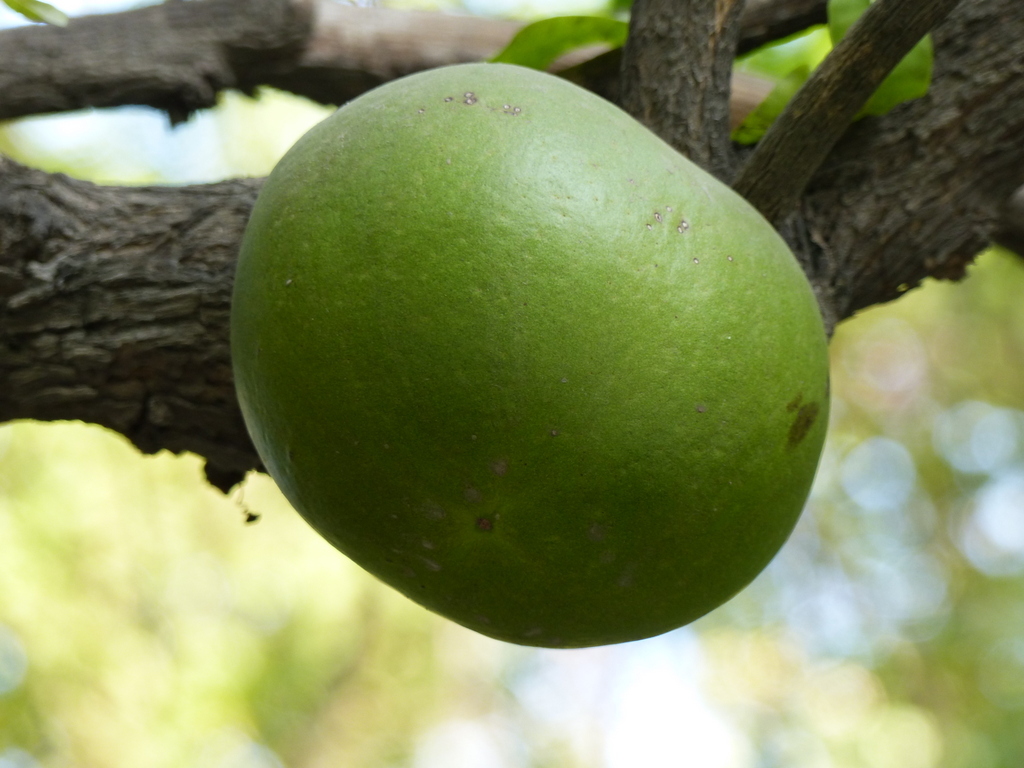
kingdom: Plantae
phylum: Tracheophyta
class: Magnoliopsida
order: Sapindales
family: Rutaceae
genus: Aegle
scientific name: Aegle marmelos
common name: Bael
